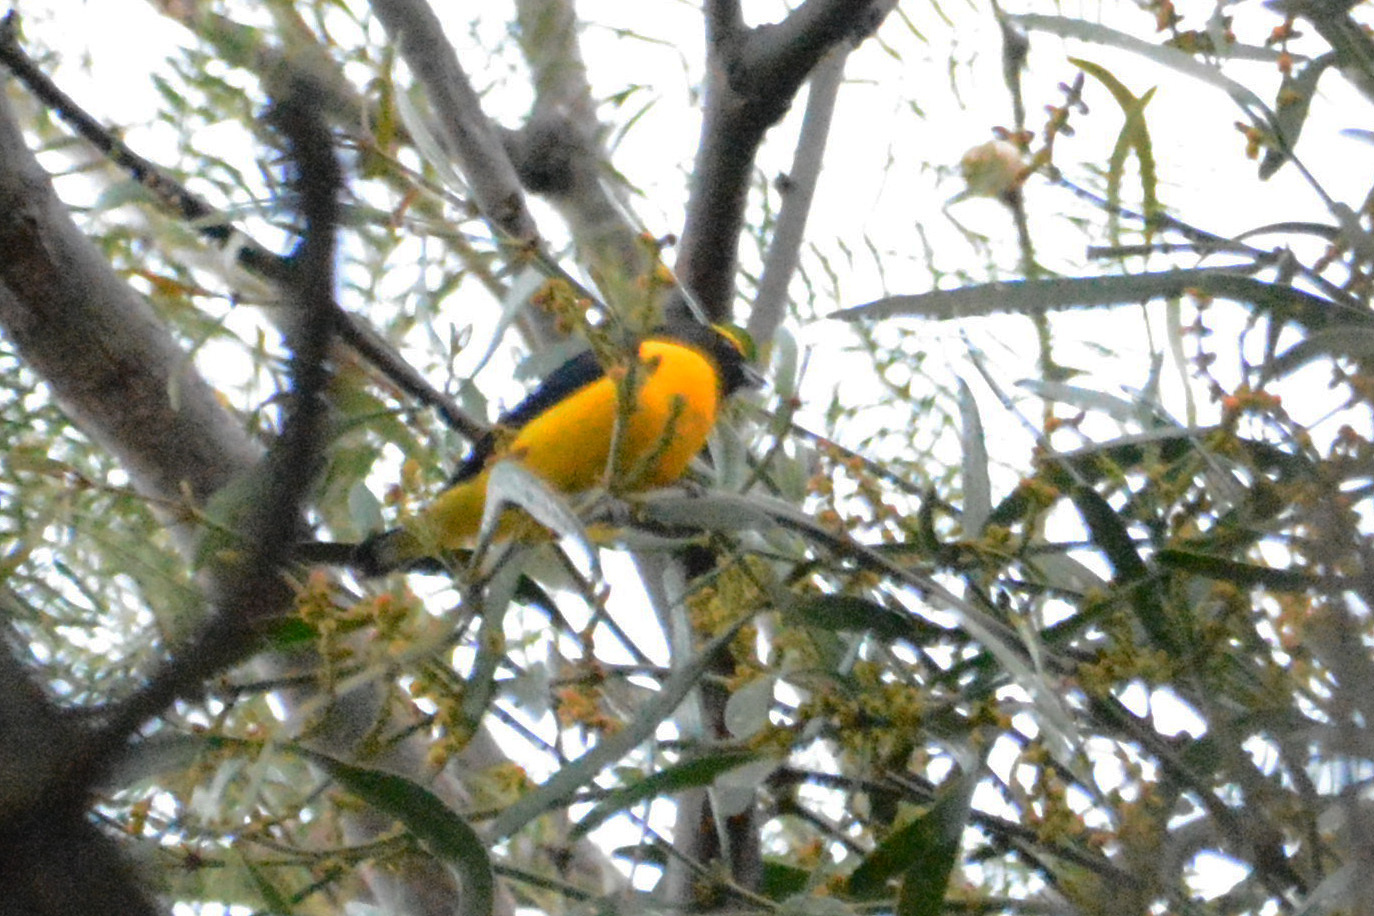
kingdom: Animalia
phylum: Chordata
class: Aves
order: Passeriformes
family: Fringillidae
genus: Euphonia
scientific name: Euphonia chlorotica
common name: Purple-throated euphonia
